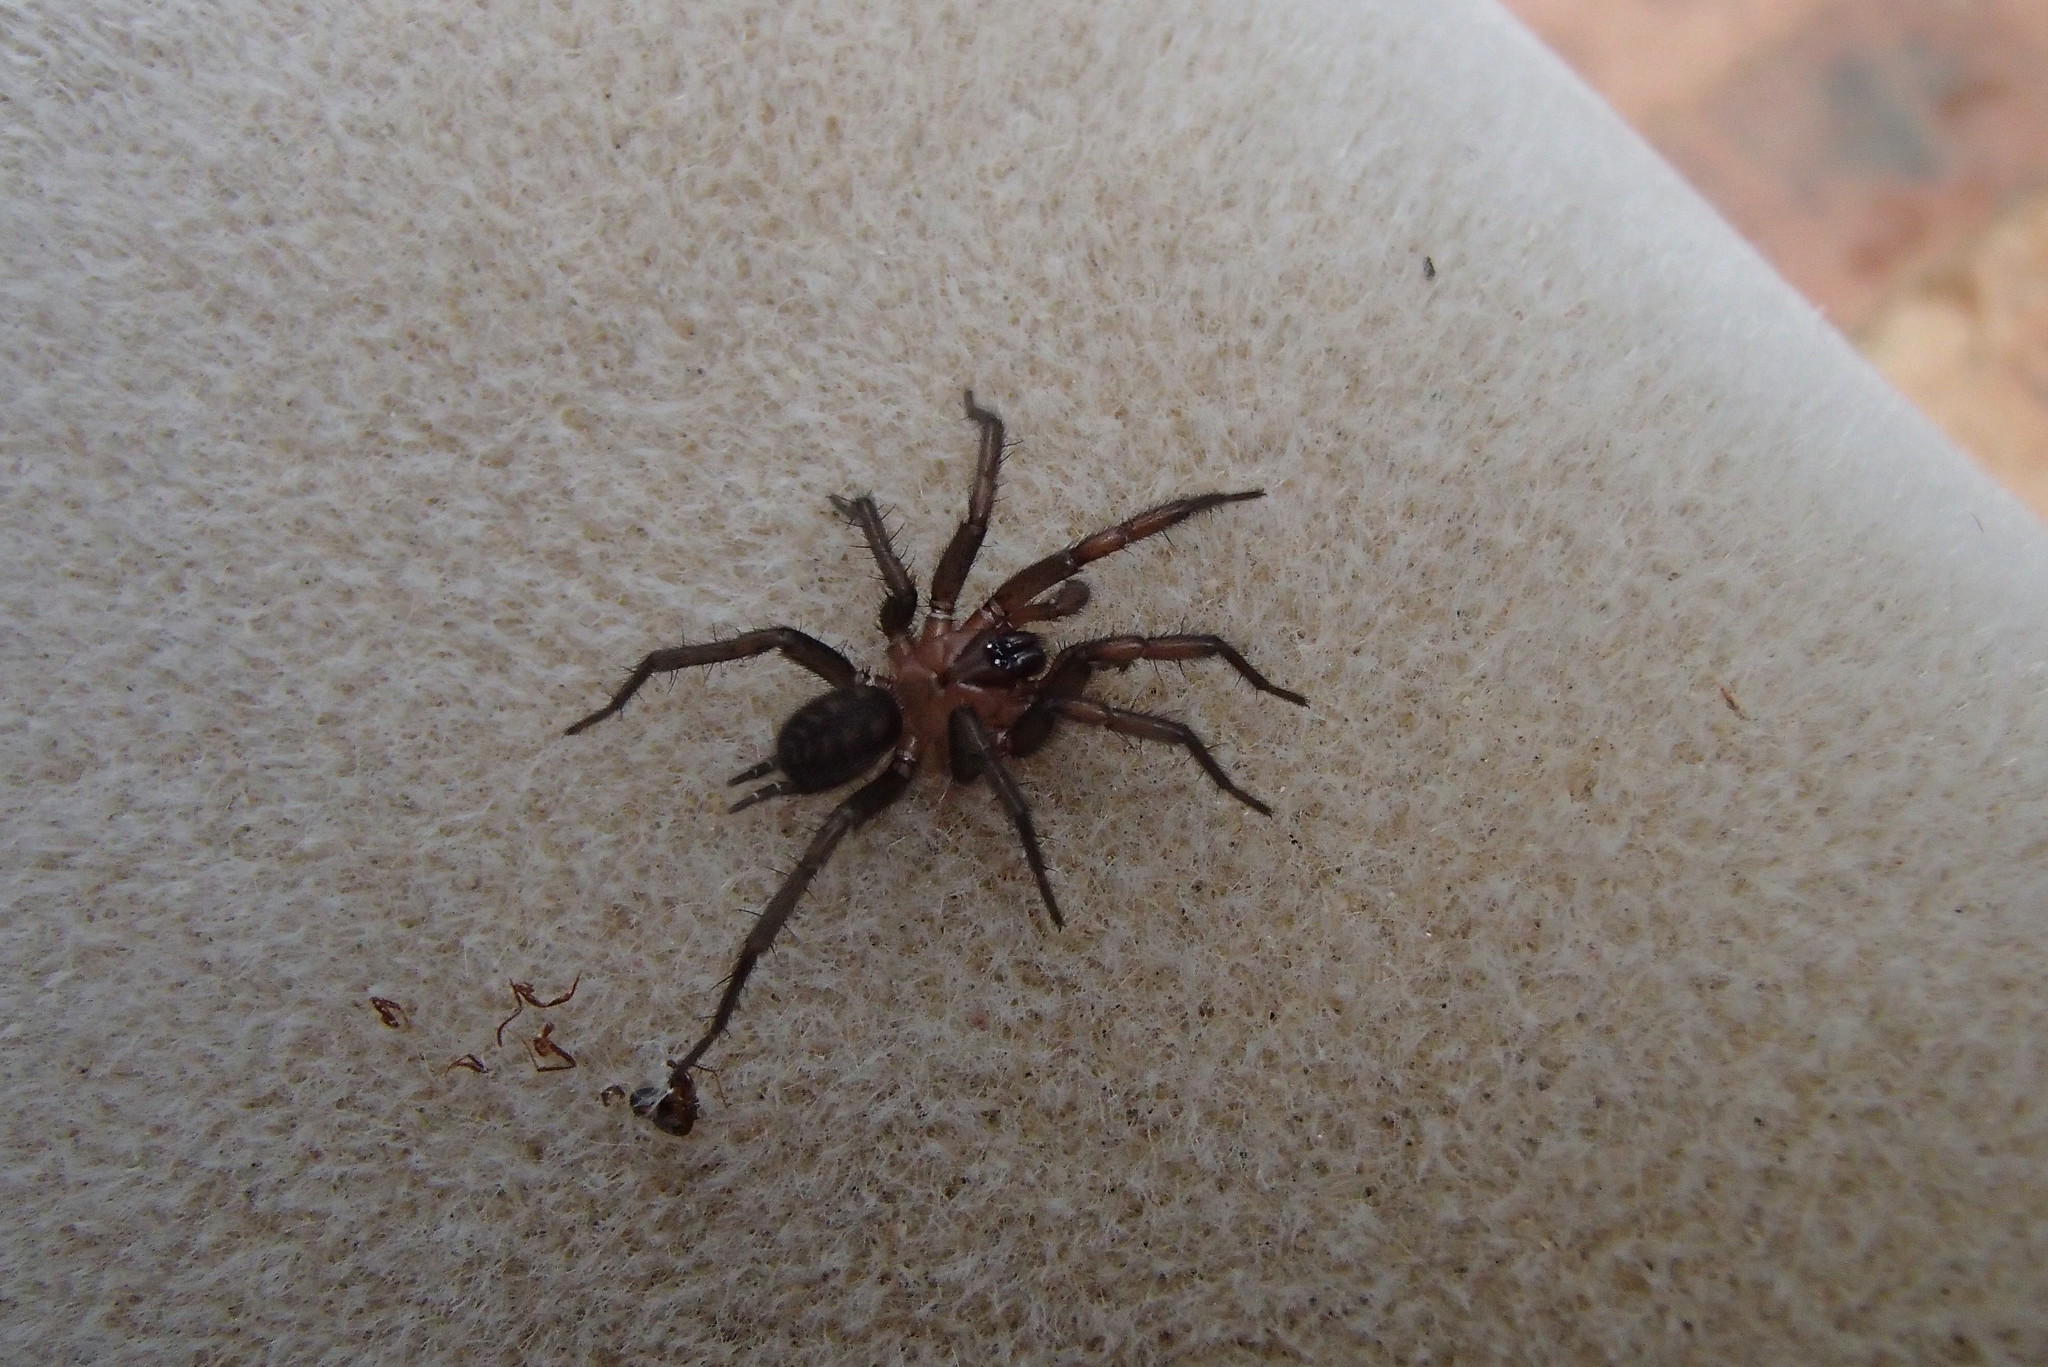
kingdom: Animalia
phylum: Arthropoda
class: Arachnida
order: Araneae
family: Hexathelidae
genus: Paraembolides
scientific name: Paraembolides variabilis
